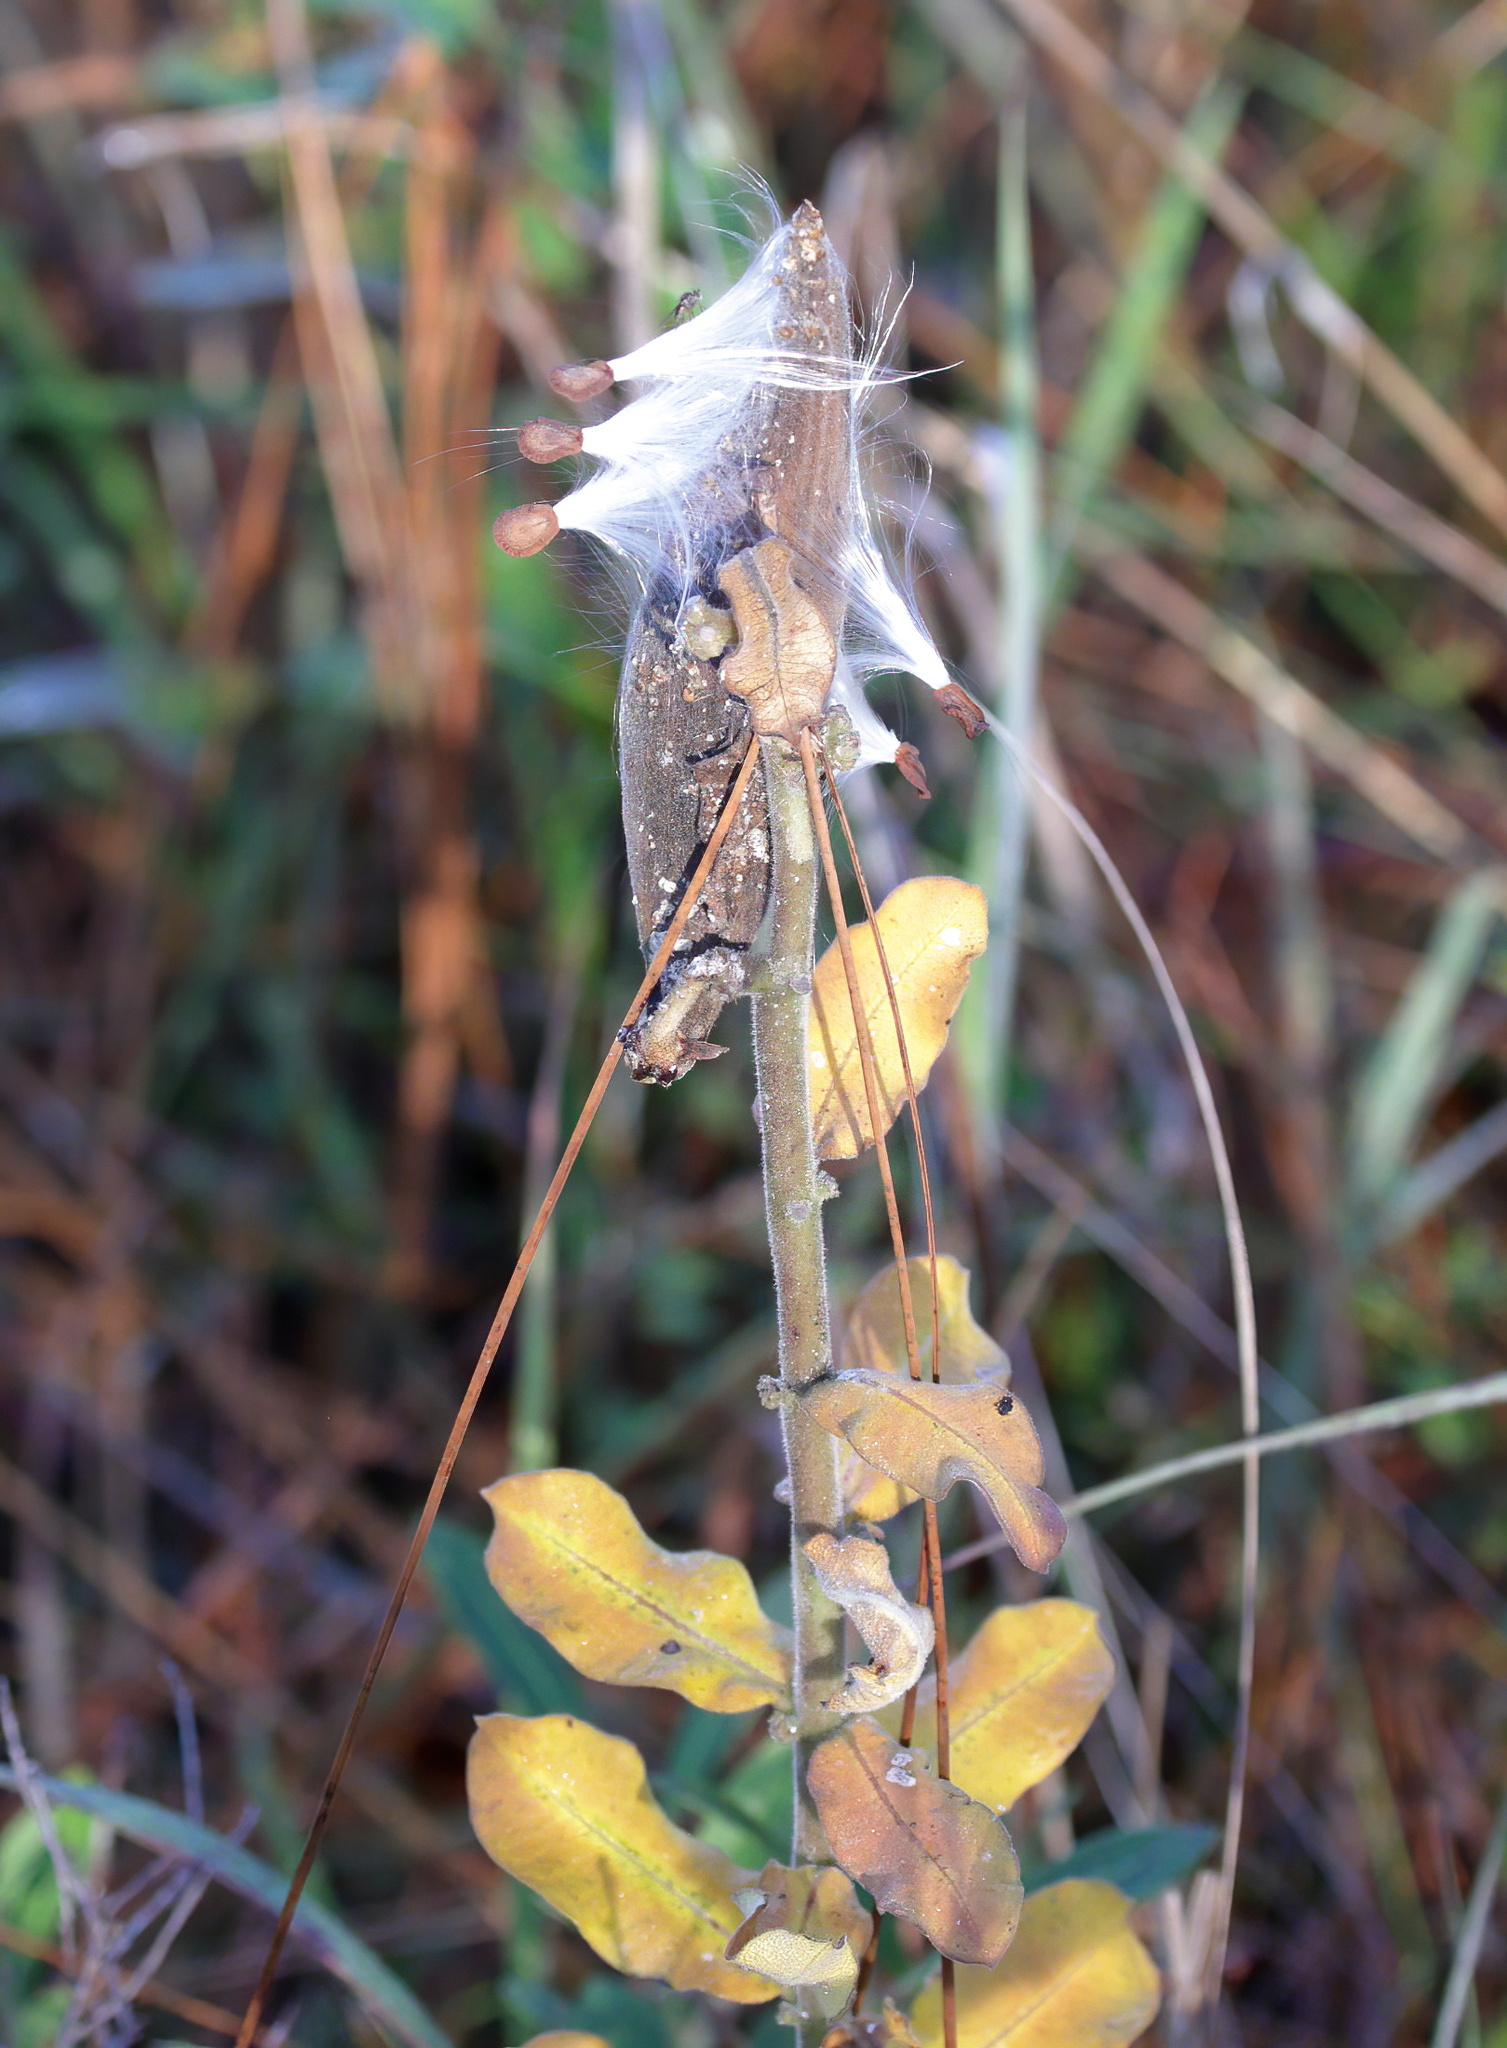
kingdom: Plantae
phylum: Tracheophyta
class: Magnoliopsida
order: Gentianales
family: Apocynaceae
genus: Asclepias
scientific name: Asclepias obovata
